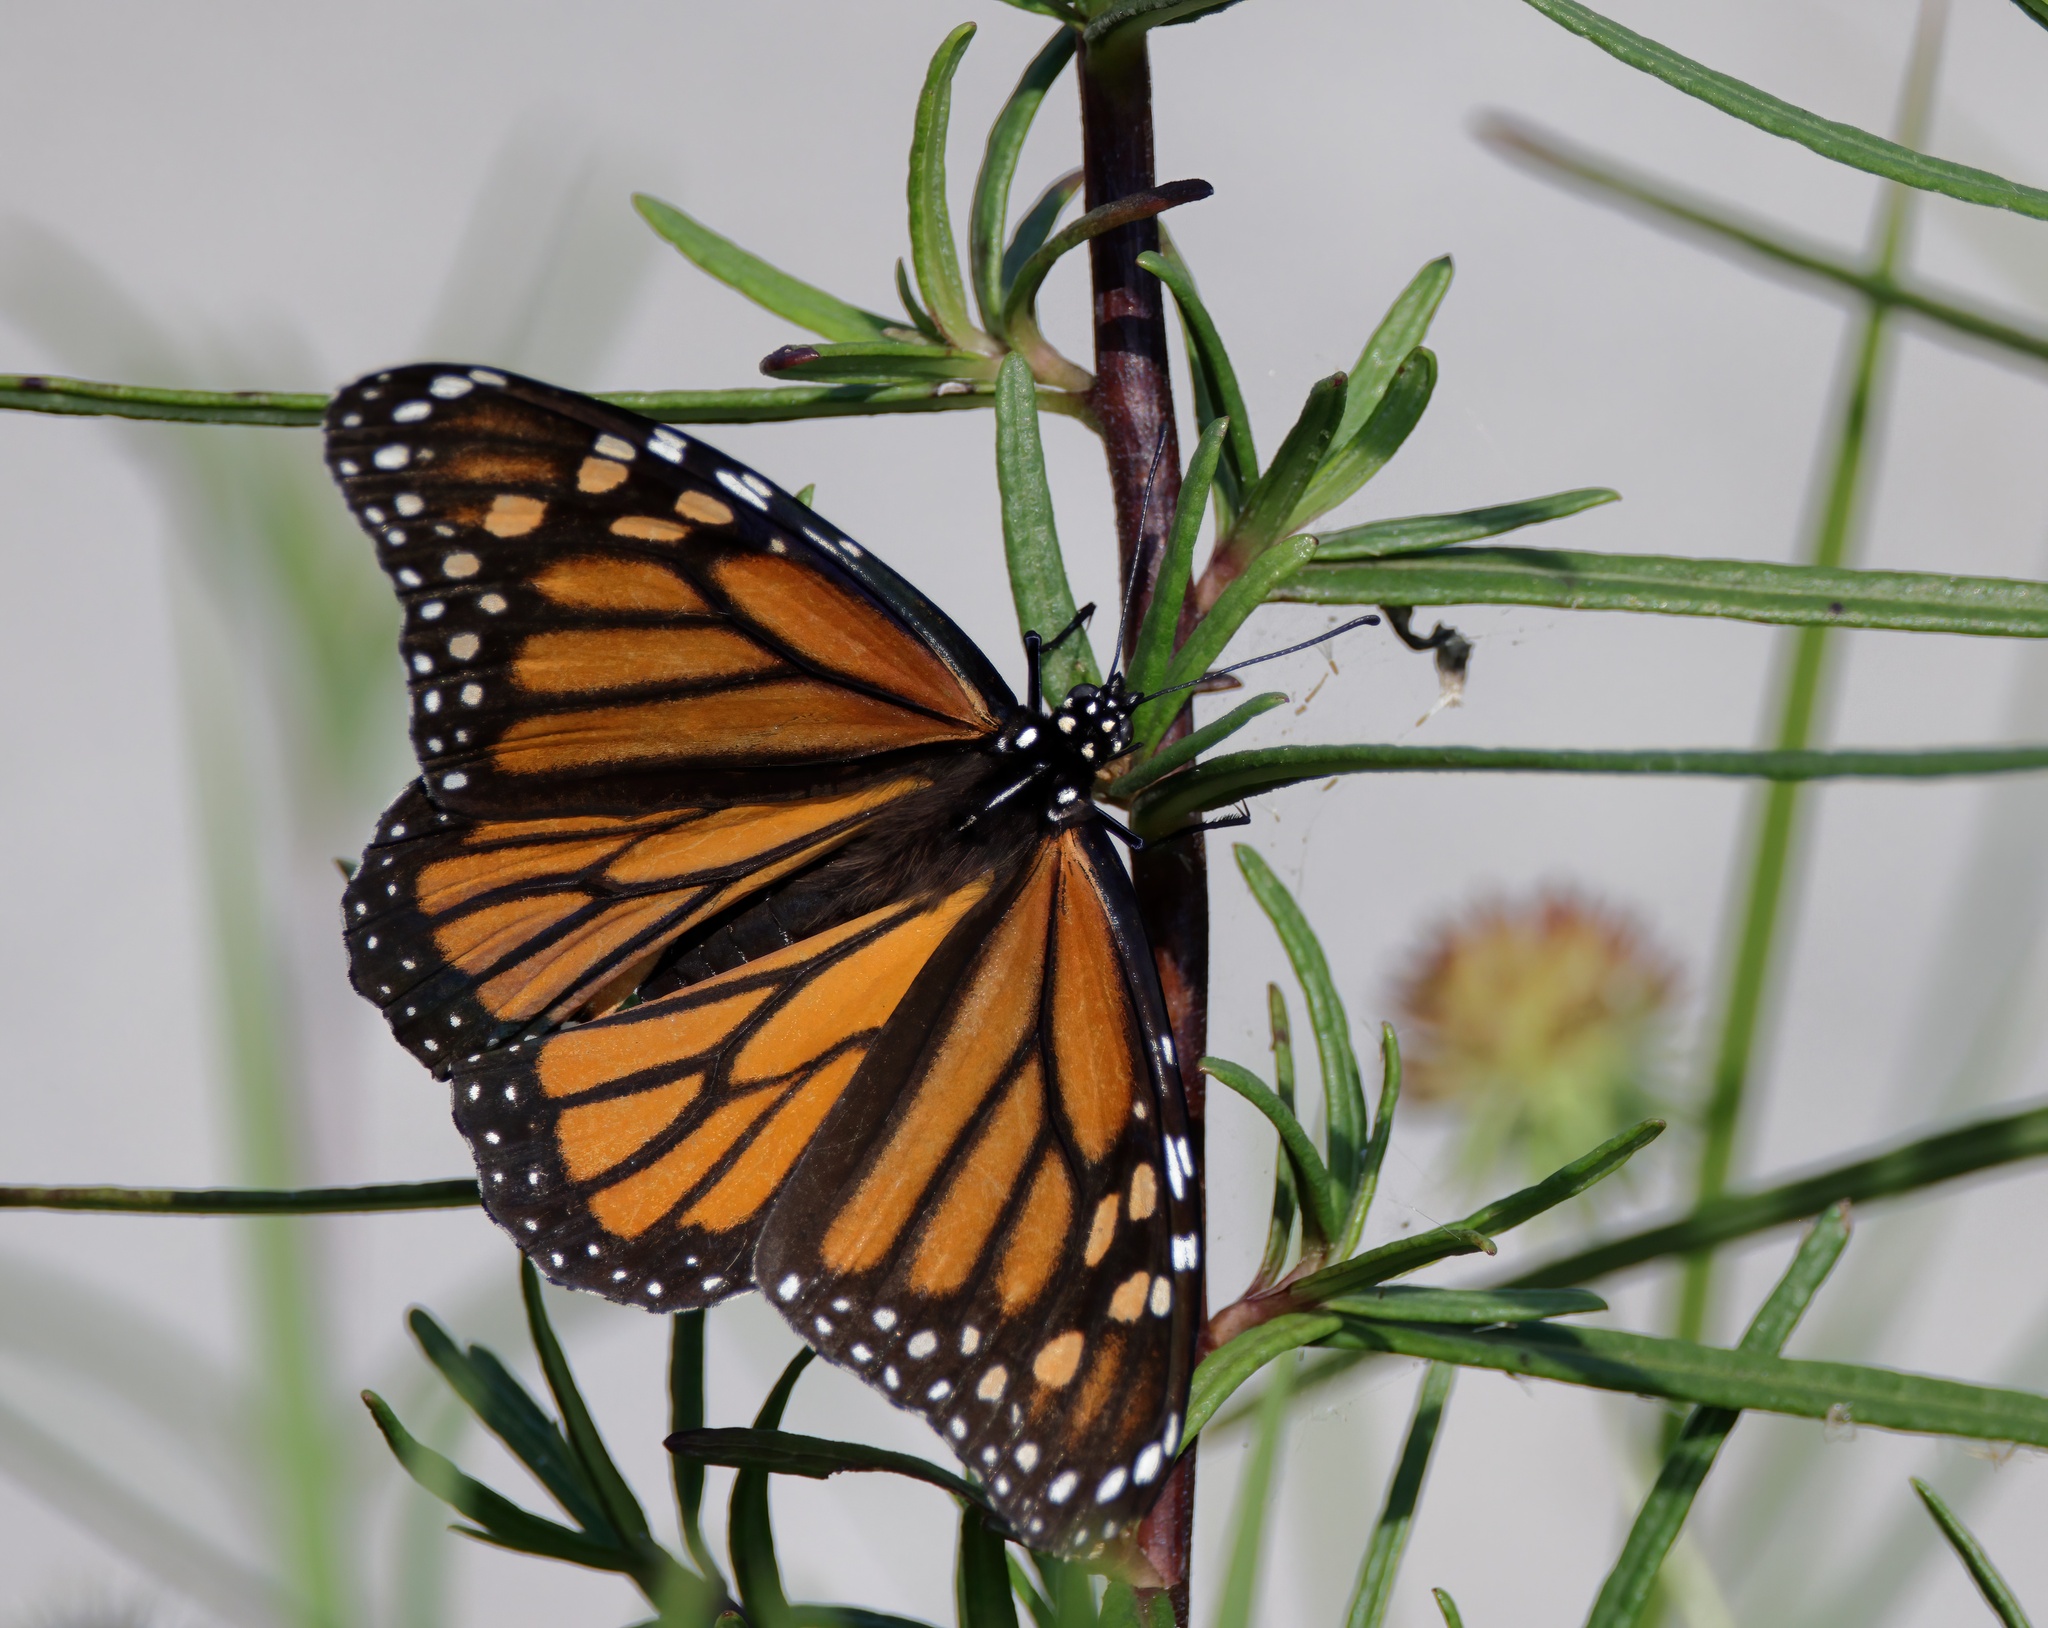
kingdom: Animalia
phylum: Arthropoda
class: Insecta
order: Lepidoptera
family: Nymphalidae
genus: Danaus
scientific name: Danaus plexippus
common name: Monarch
